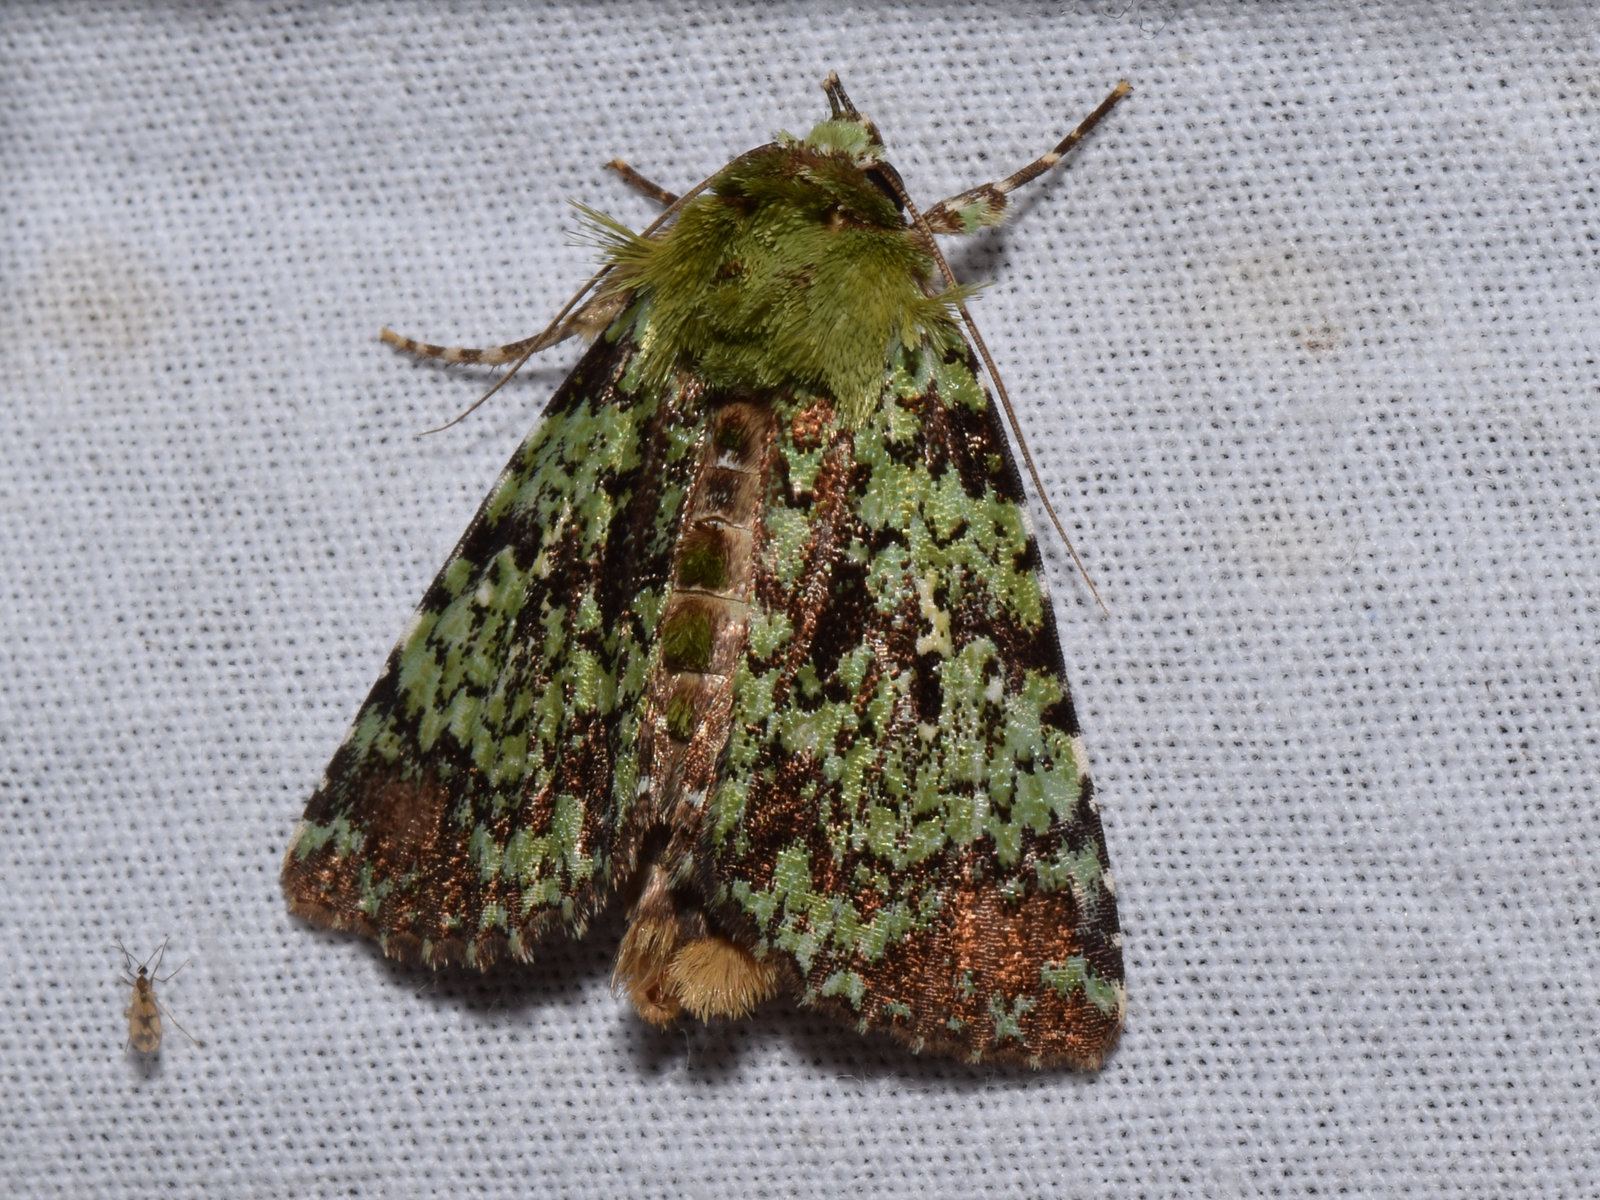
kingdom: Animalia
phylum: Arthropoda
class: Insecta
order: Lepidoptera
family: Noctuidae
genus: Belciana
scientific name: Belciana viridipicta
